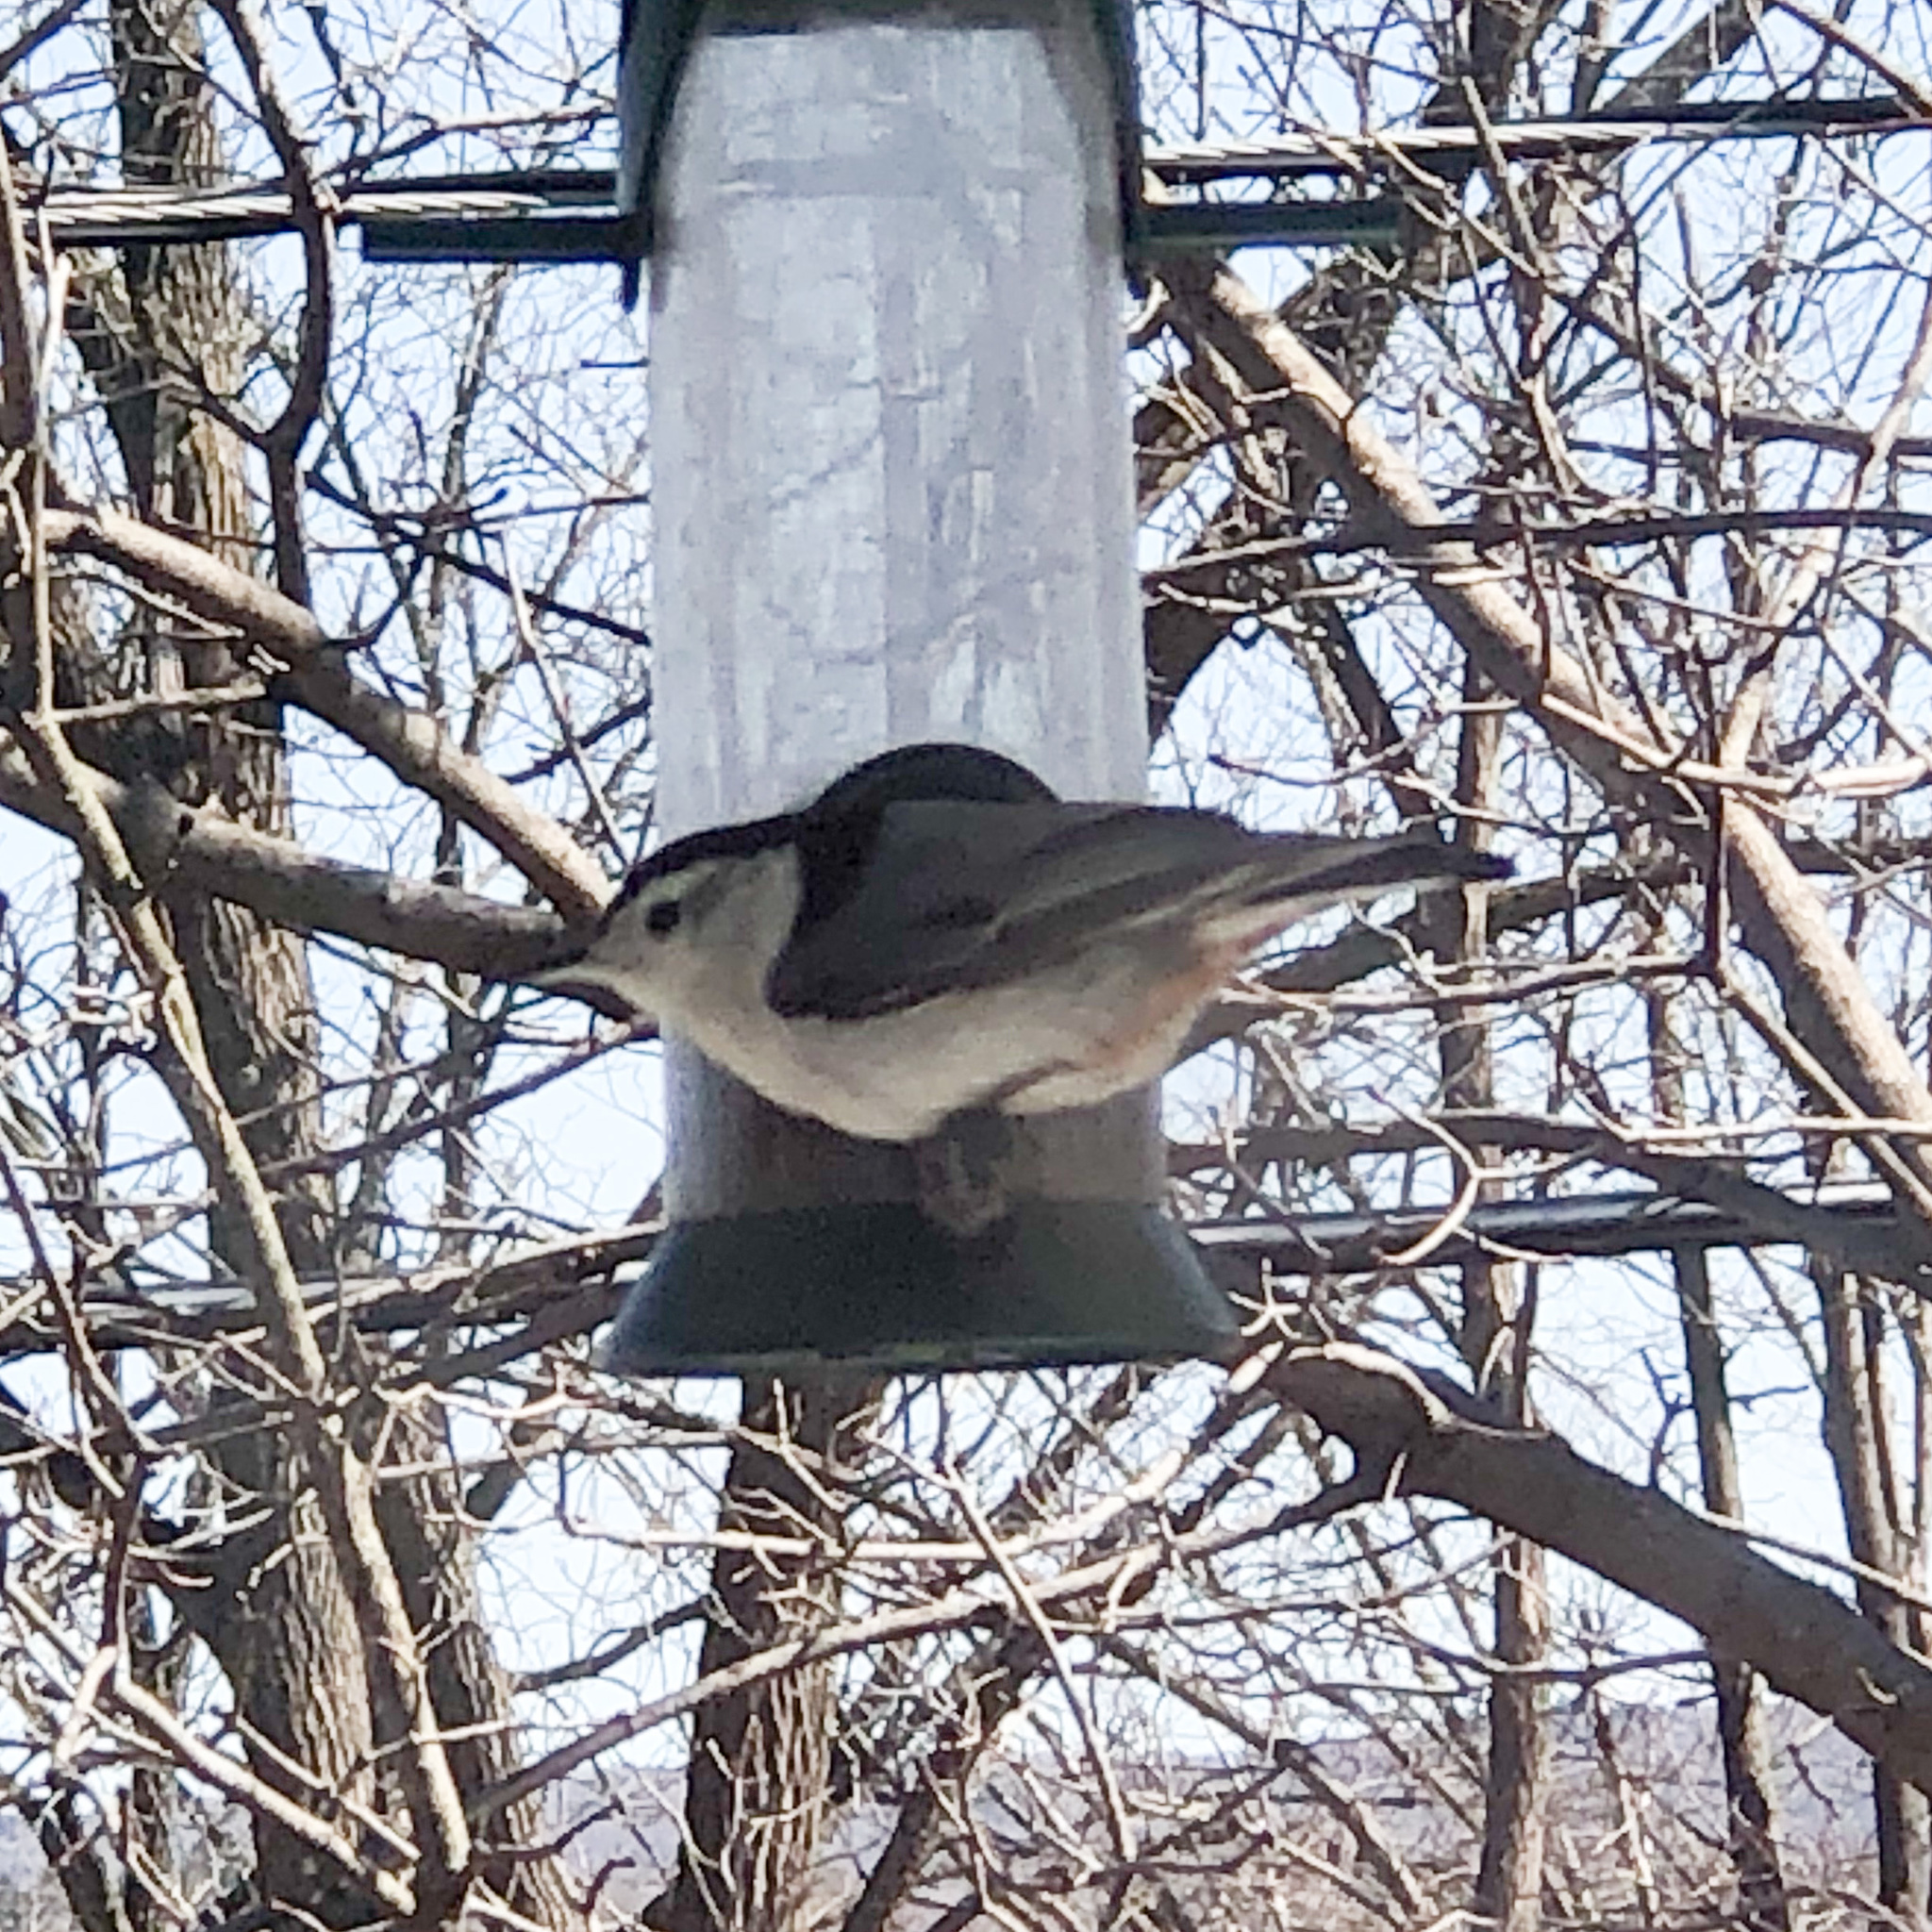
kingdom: Animalia
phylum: Chordata
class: Aves
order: Passeriformes
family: Sittidae
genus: Sitta
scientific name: Sitta carolinensis
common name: White-breasted nuthatch
